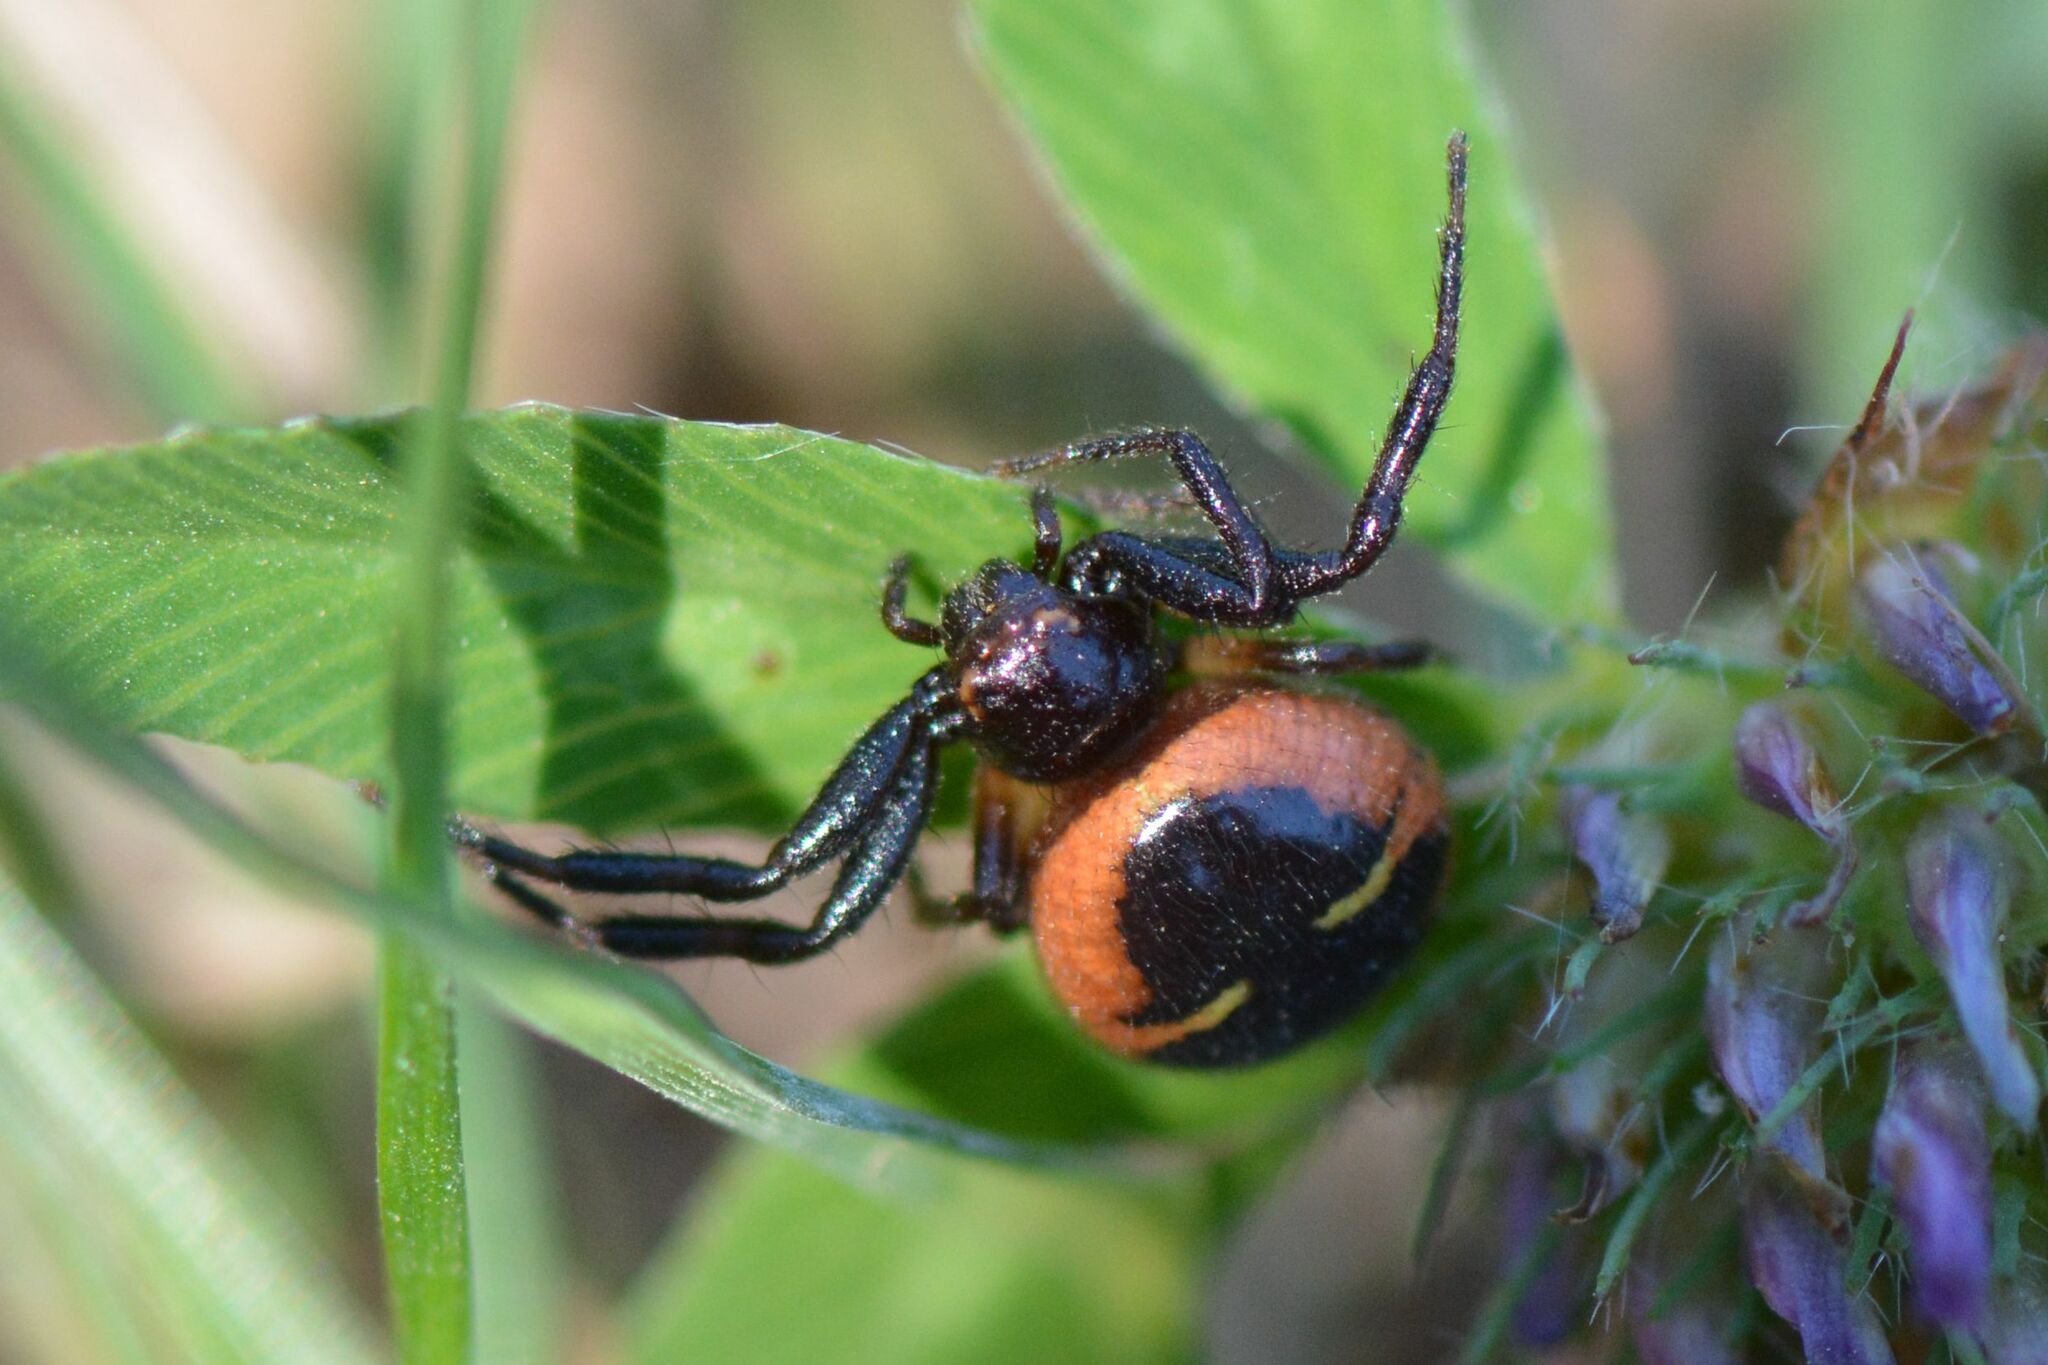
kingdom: Animalia
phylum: Arthropoda
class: Arachnida
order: Araneae
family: Thomisidae
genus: Synema
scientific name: Synema globosum
